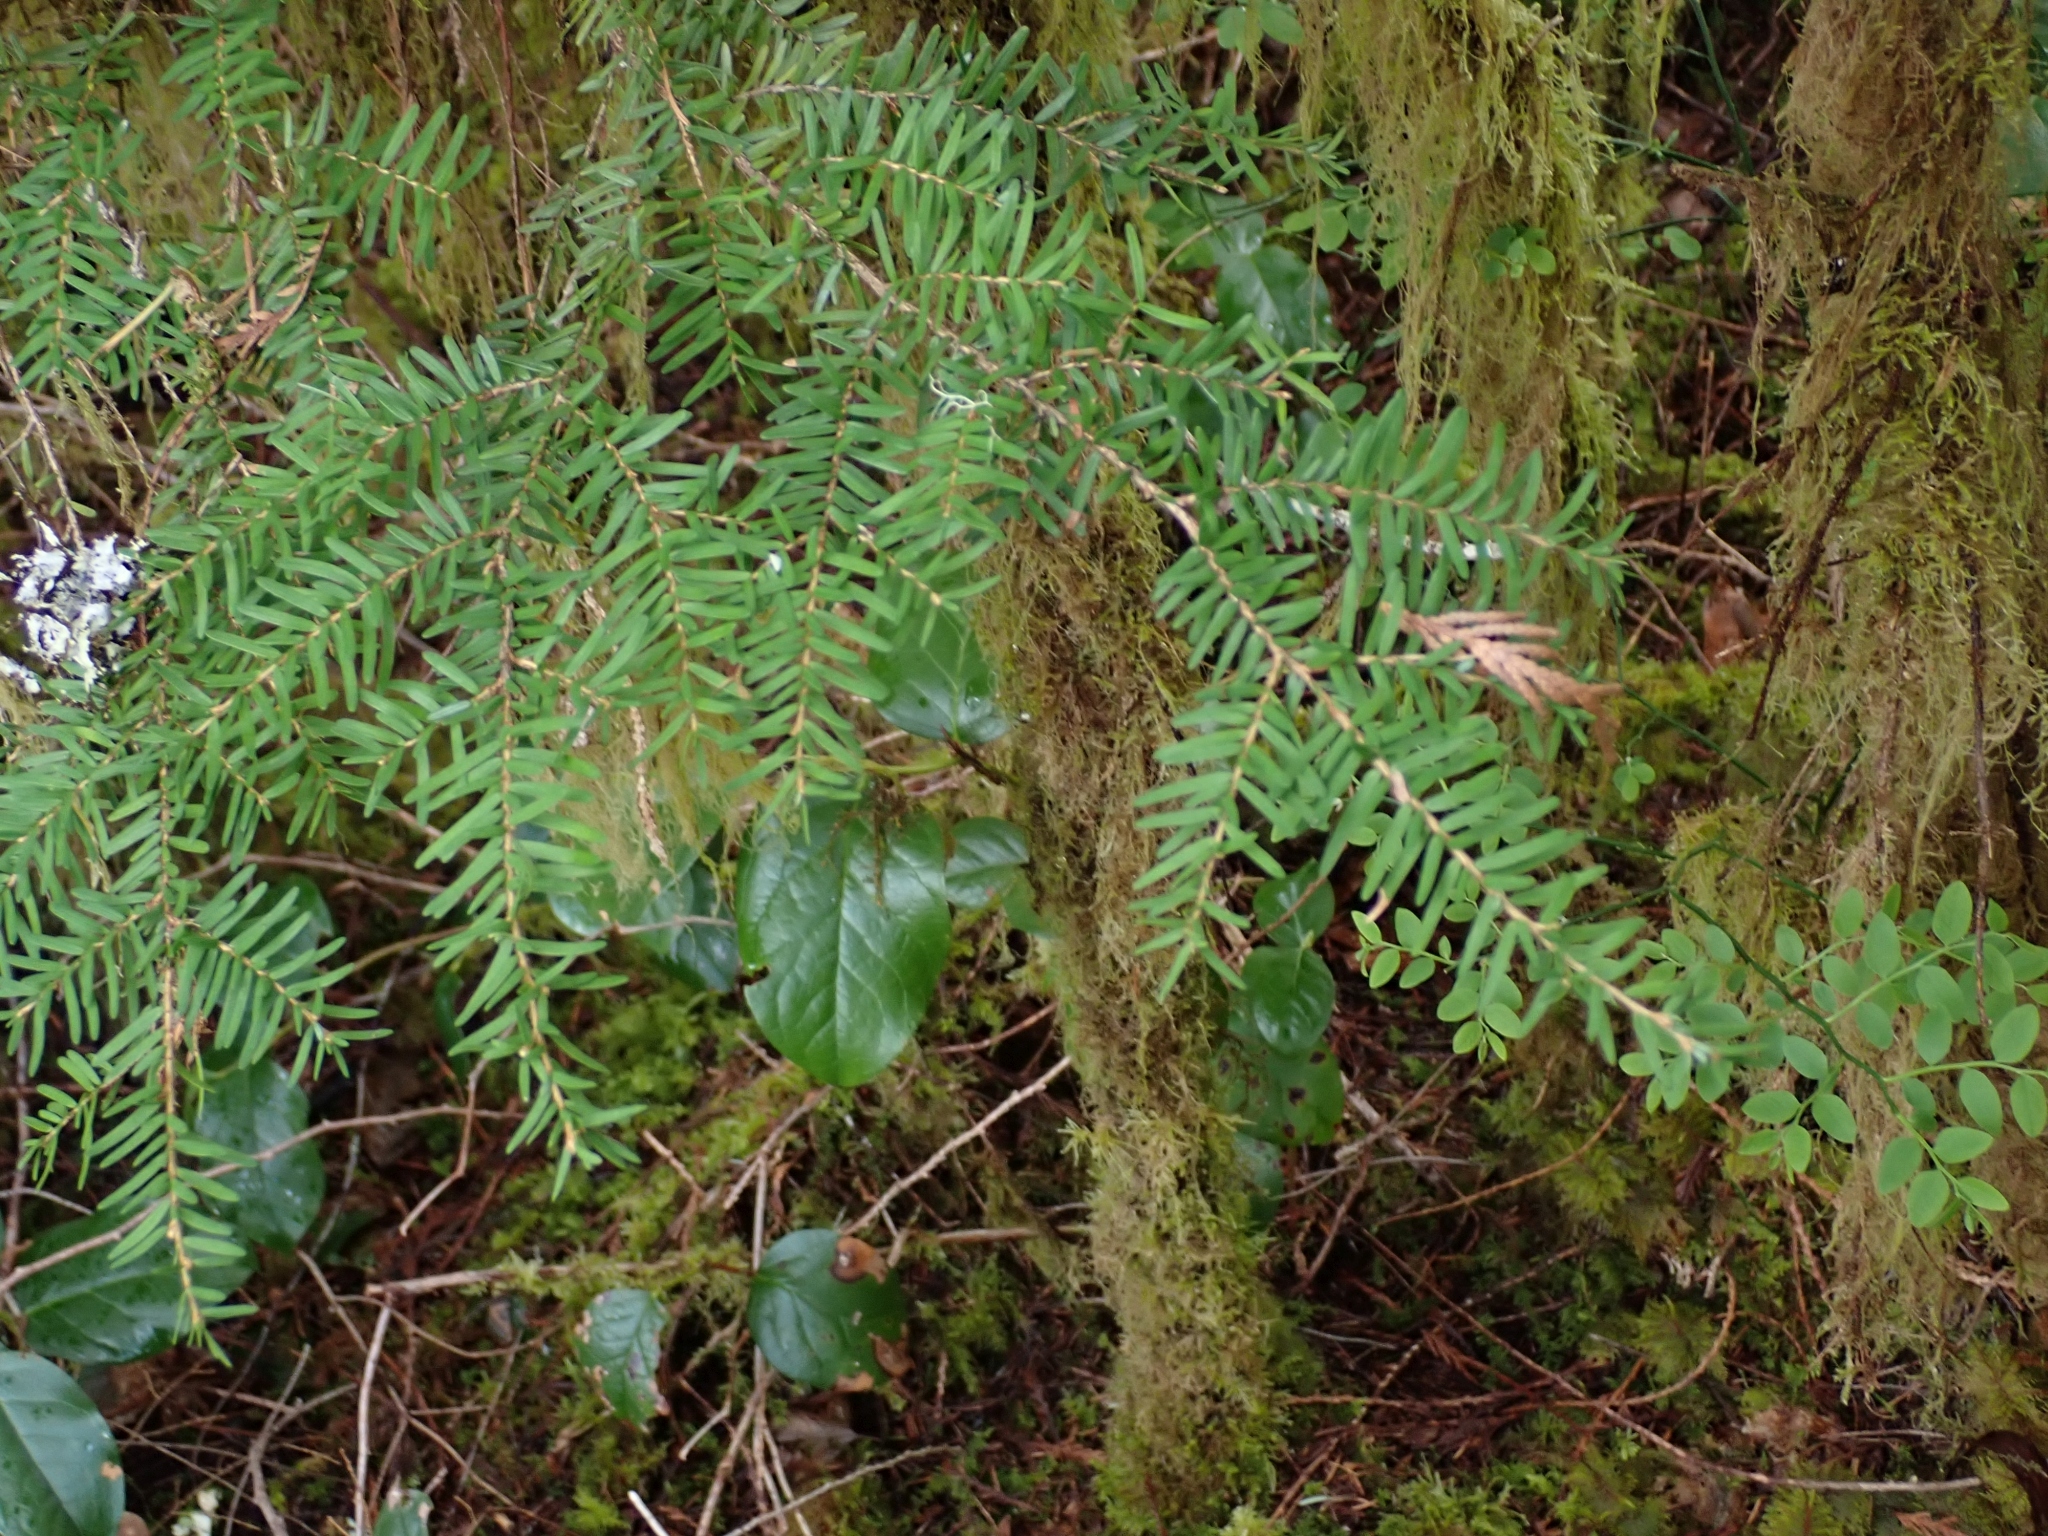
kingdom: Plantae
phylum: Tracheophyta
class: Pinopsida
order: Pinales
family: Pinaceae
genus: Tsuga
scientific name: Tsuga heterophylla
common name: Western hemlock
